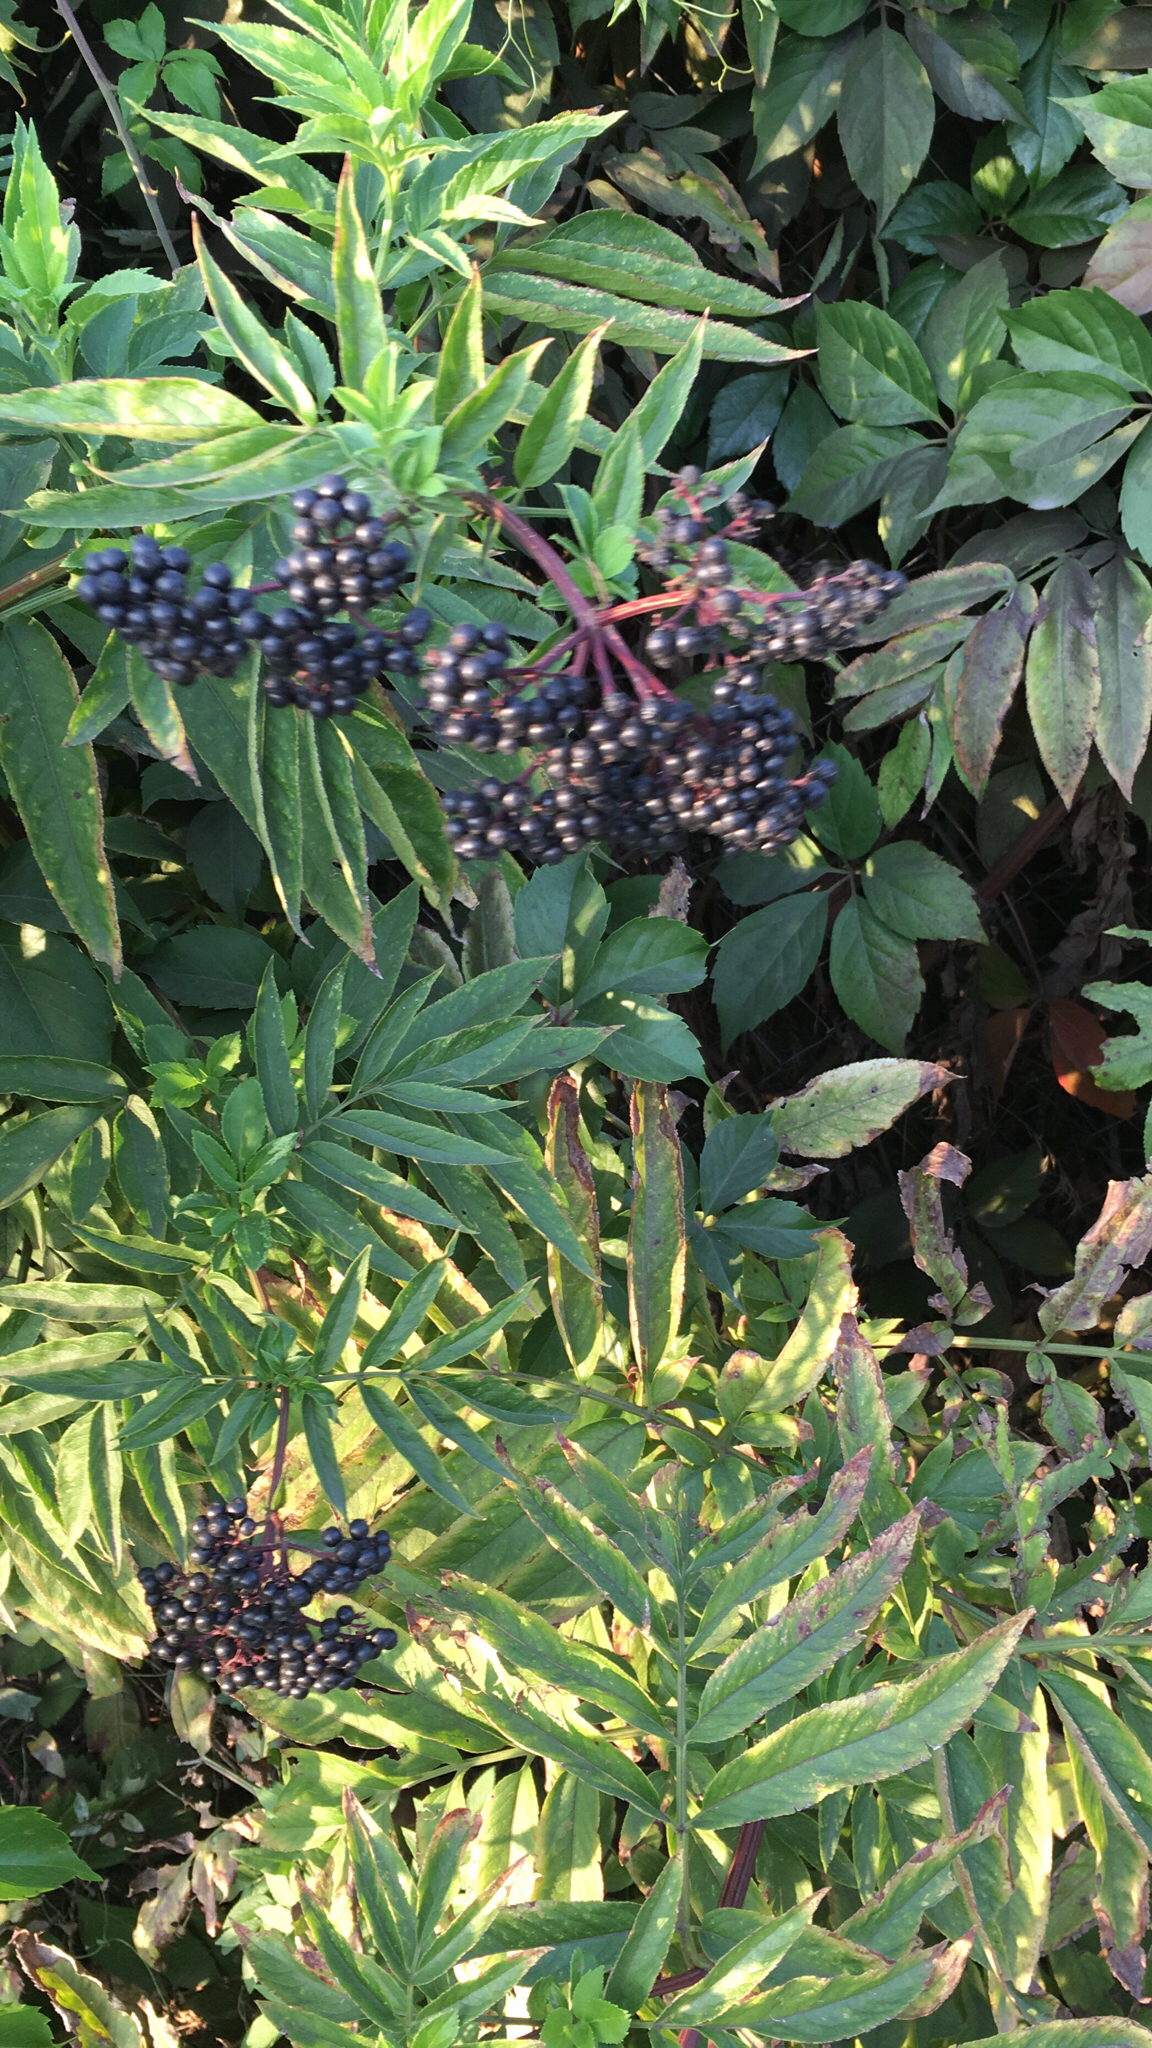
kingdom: Plantae
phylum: Tracheophyta
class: Magnoliopsida
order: Dipsacales
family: Viburnaceae
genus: Sambucus
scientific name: Sambucus ebulus
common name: Dwarf elder
